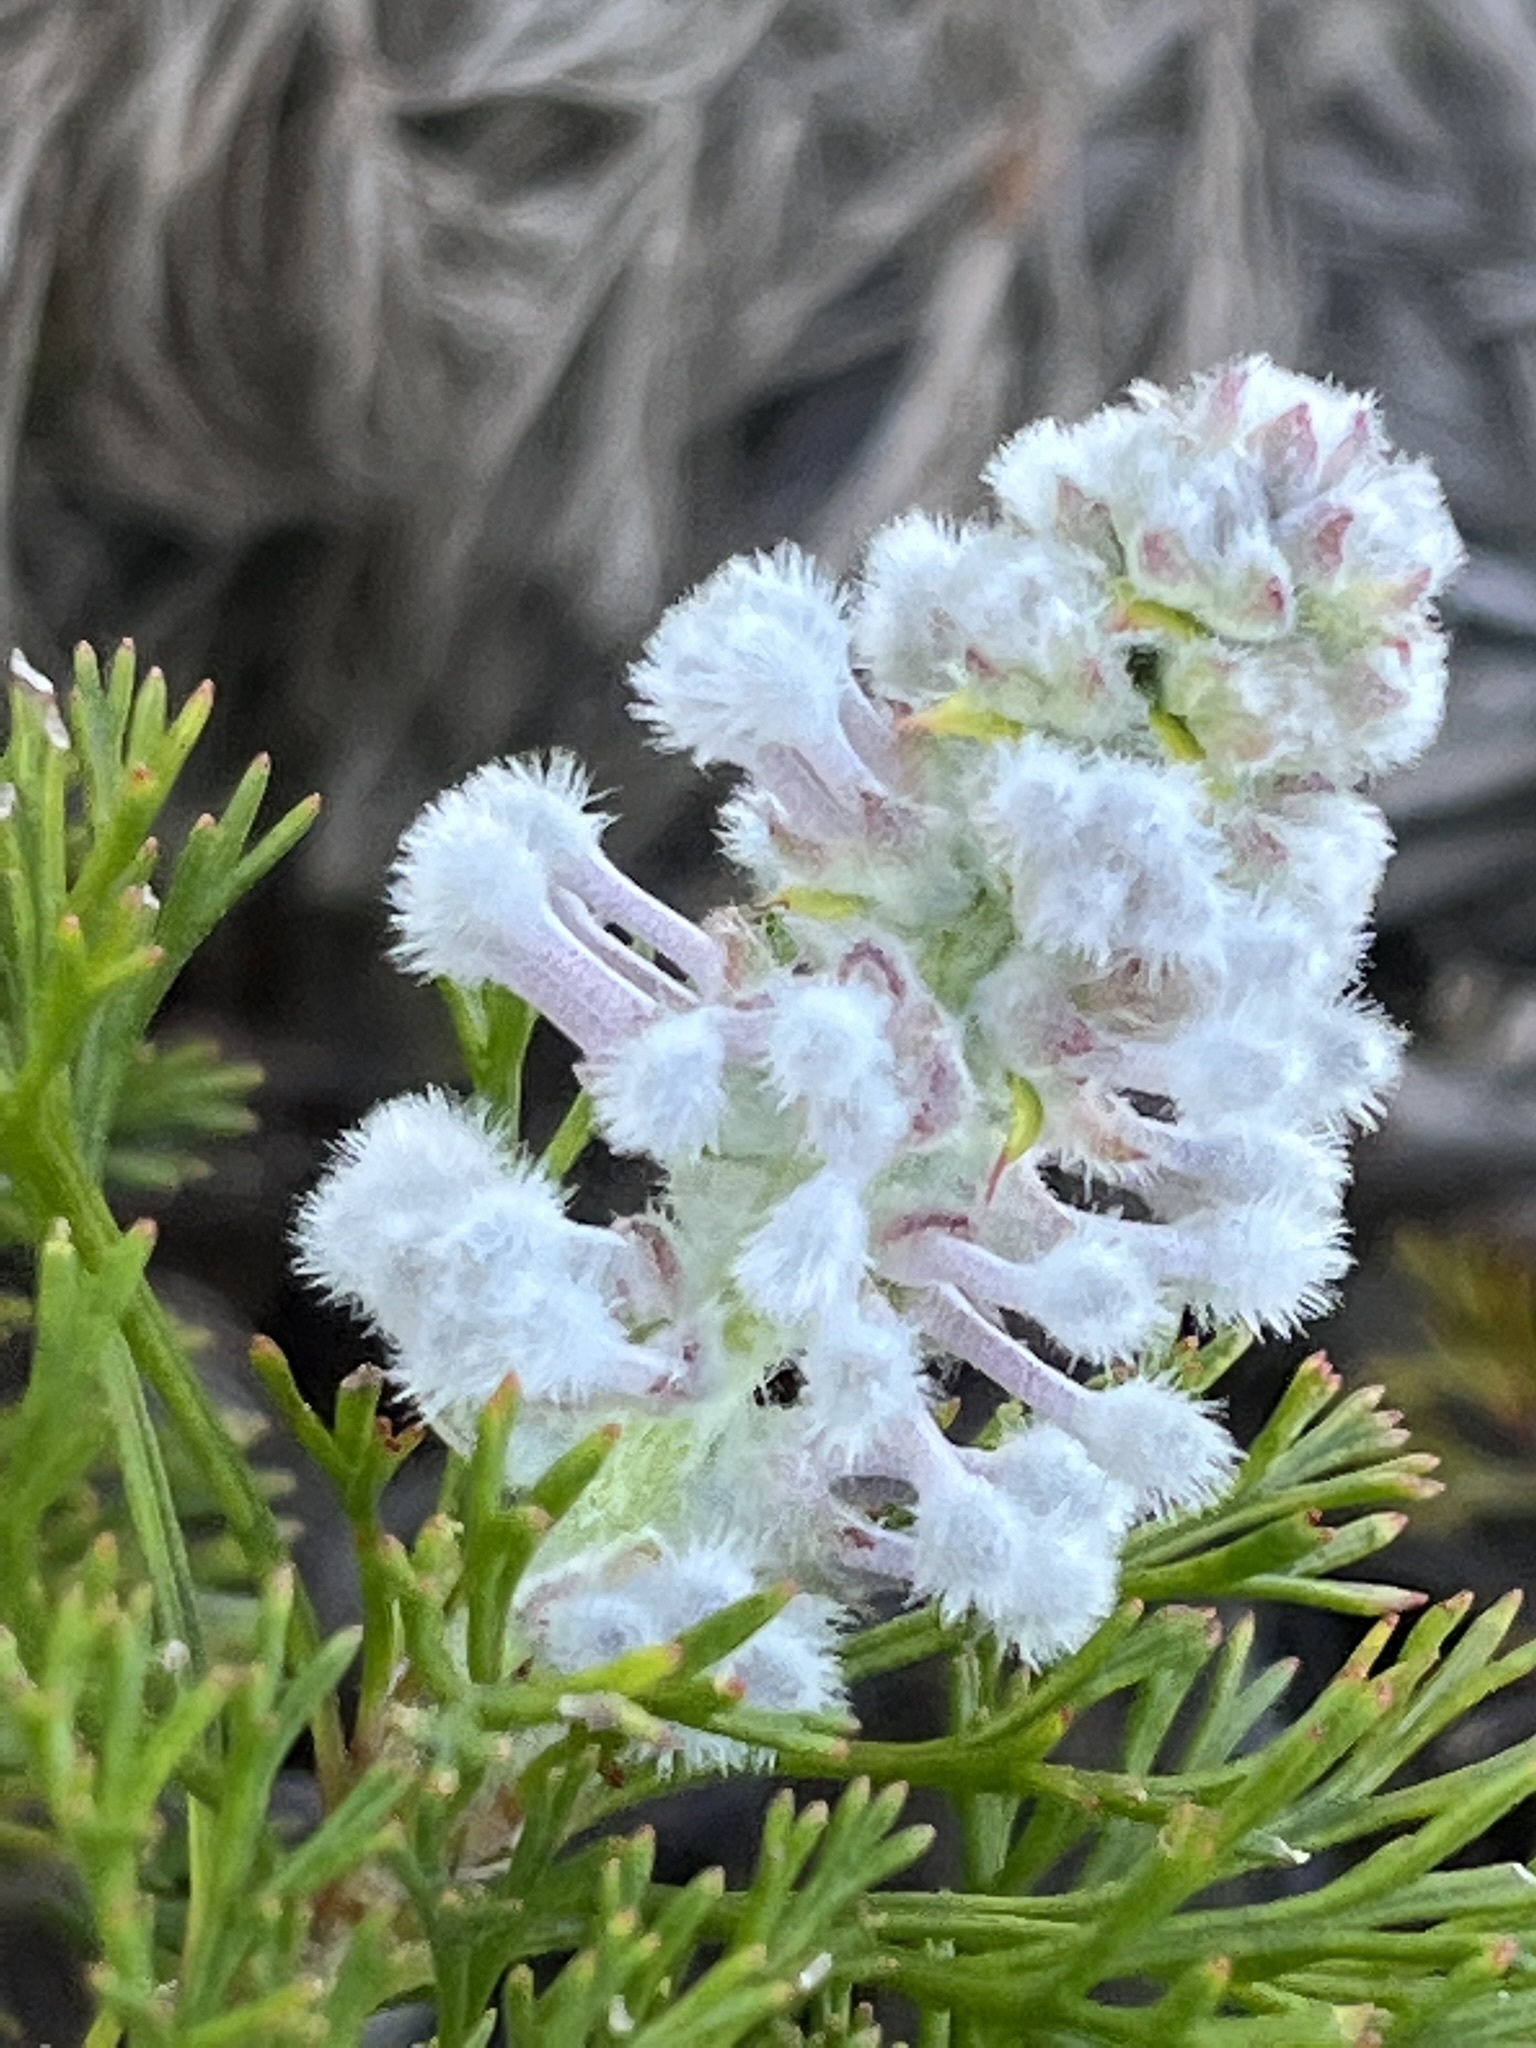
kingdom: Plantae
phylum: Tracheophyta
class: Magnoliopsida
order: Proteales
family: Proteaceae
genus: Paranomus
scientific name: Paranomus abrotanifolius
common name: Bredasdorp sceptre
